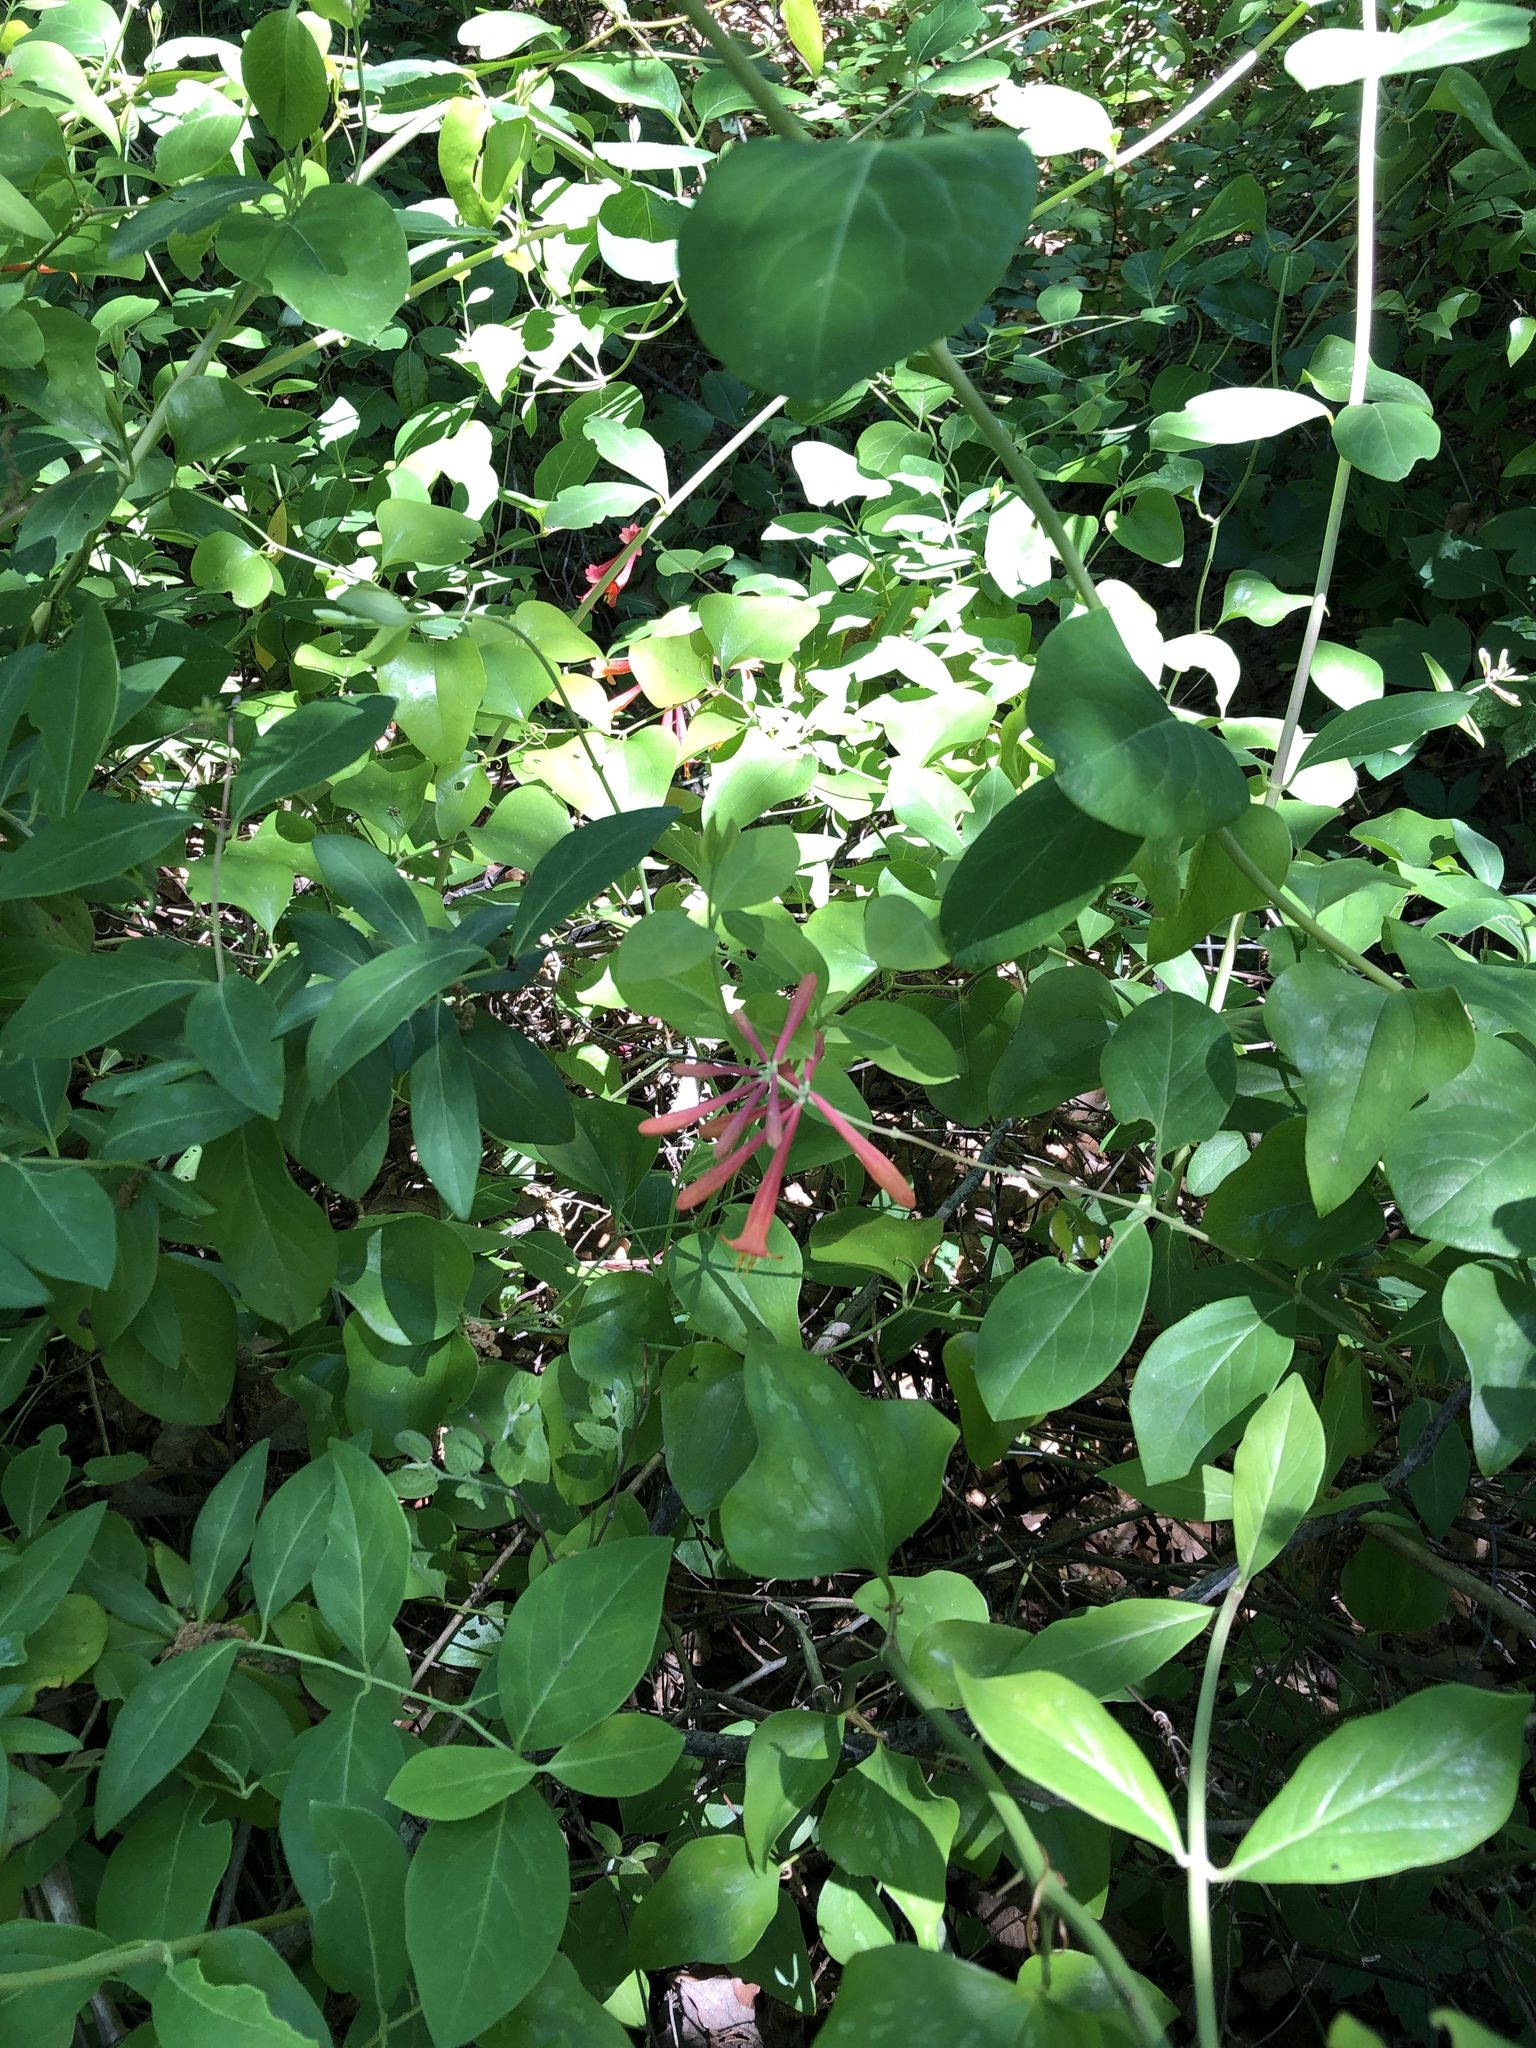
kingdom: Plantae
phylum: Tracheophyta
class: Magnoliopsida
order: Dipsacales
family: Caprifoliaceae
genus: Lonicera
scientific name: Lonicera sempervirens
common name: Coral honeysuckle
